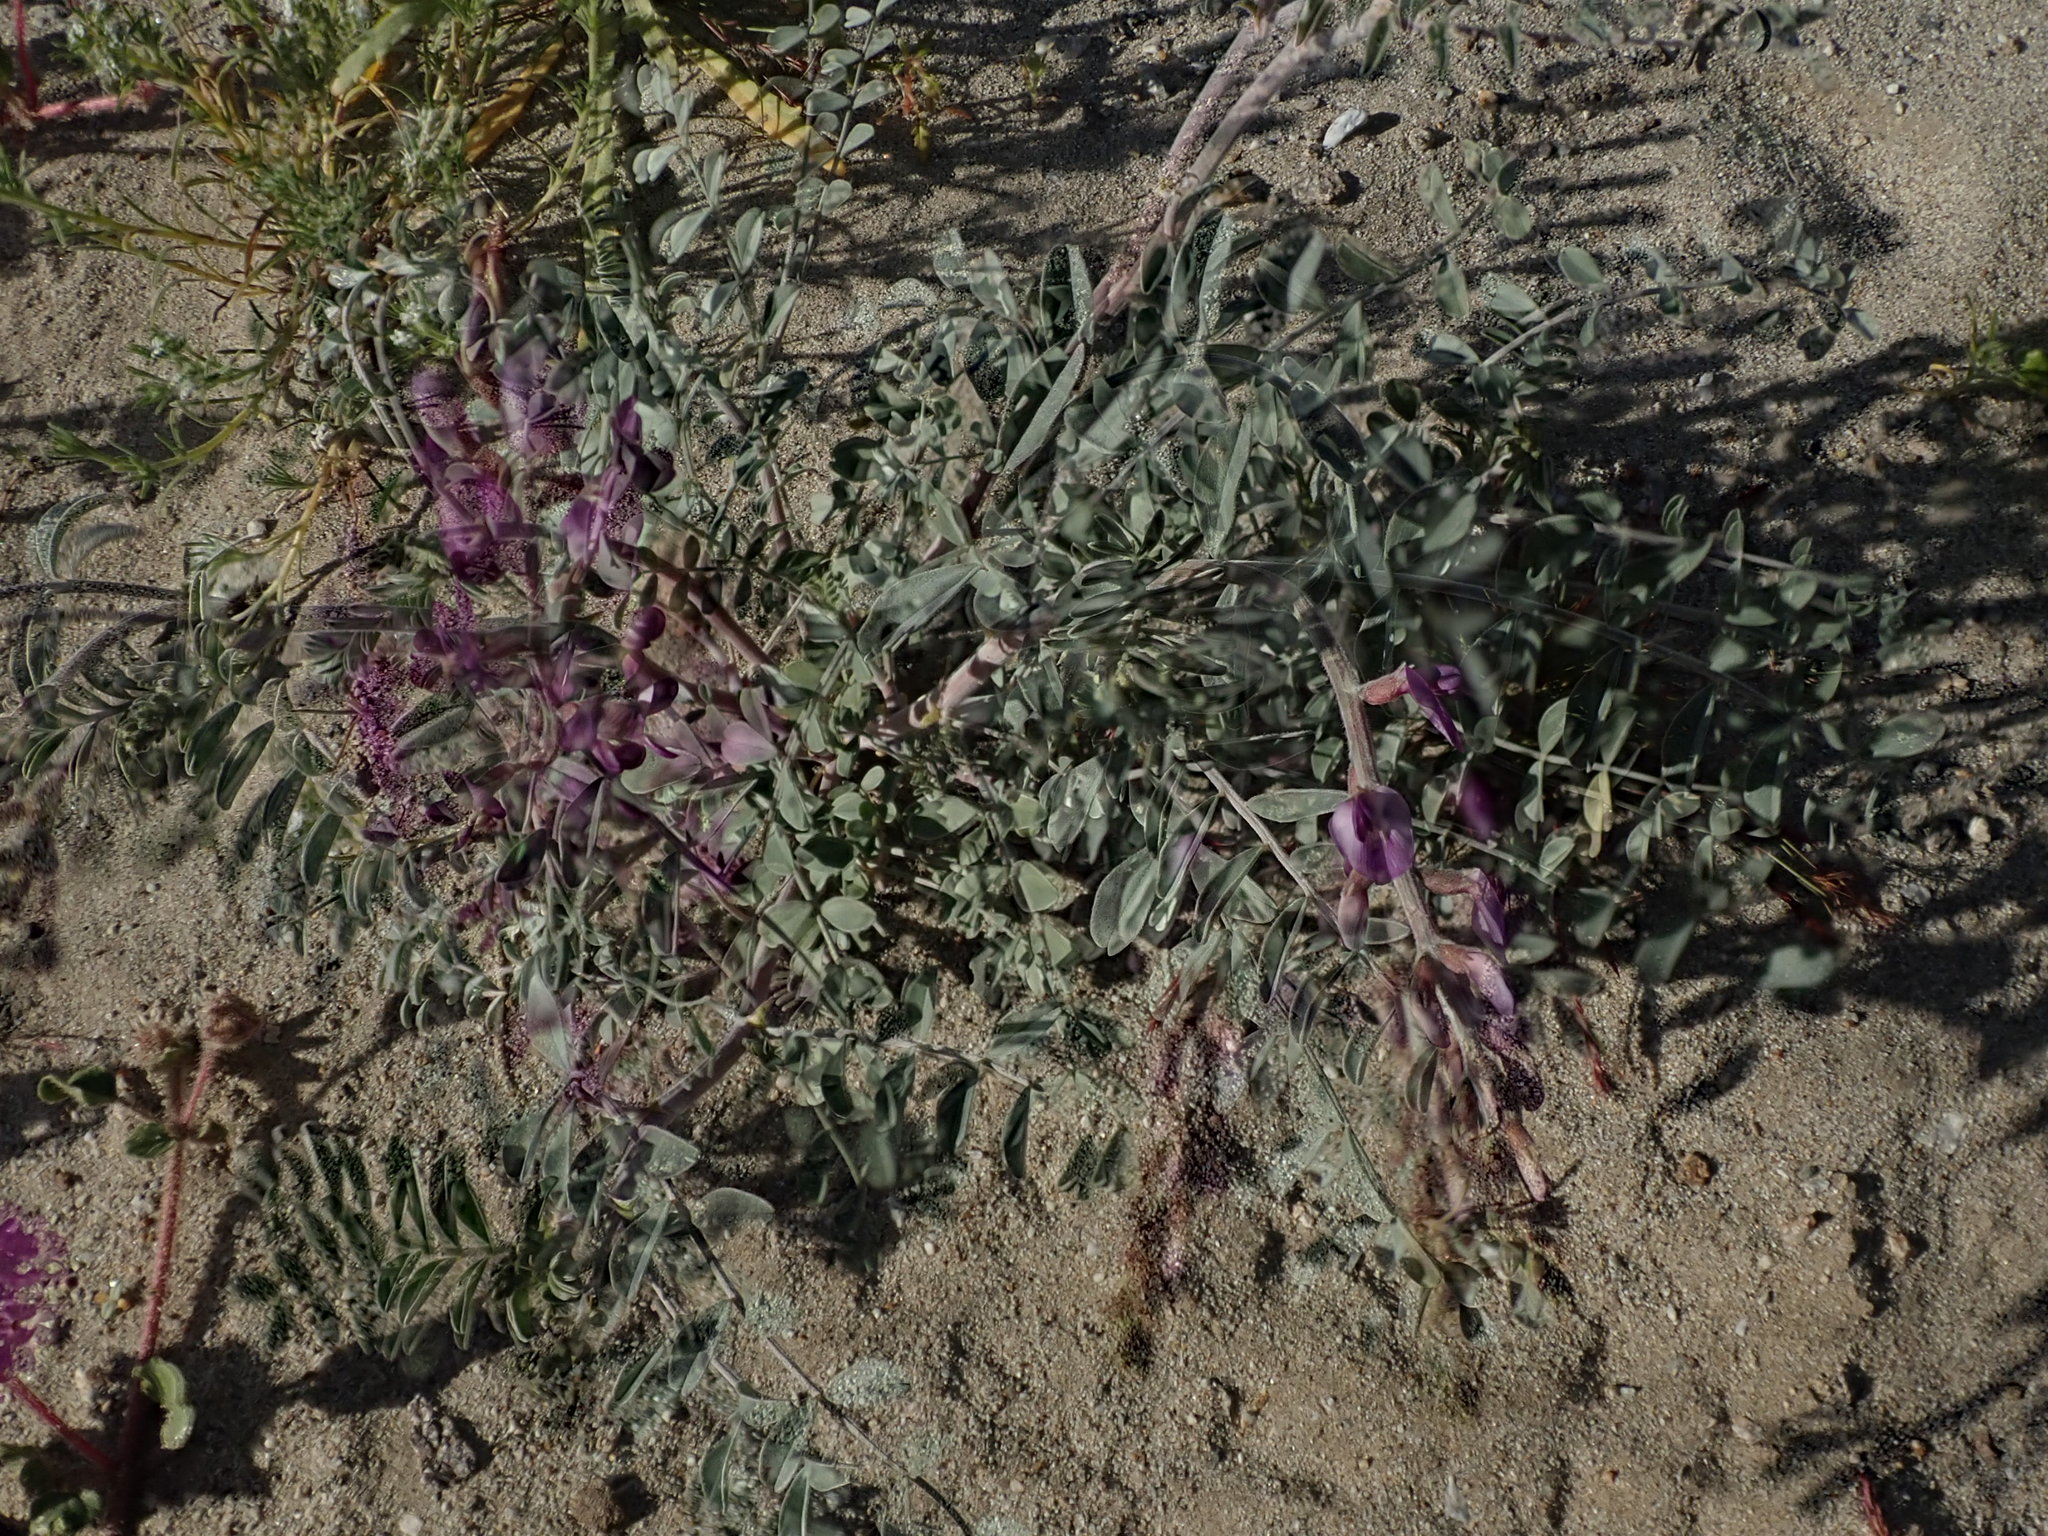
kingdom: Plantae
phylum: Tracheophyta
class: Magnoliopsida
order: Fabales
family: Fabaceae
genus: Astragalus
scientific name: Astragalus lentiginosus
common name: Freckled milkvetch
